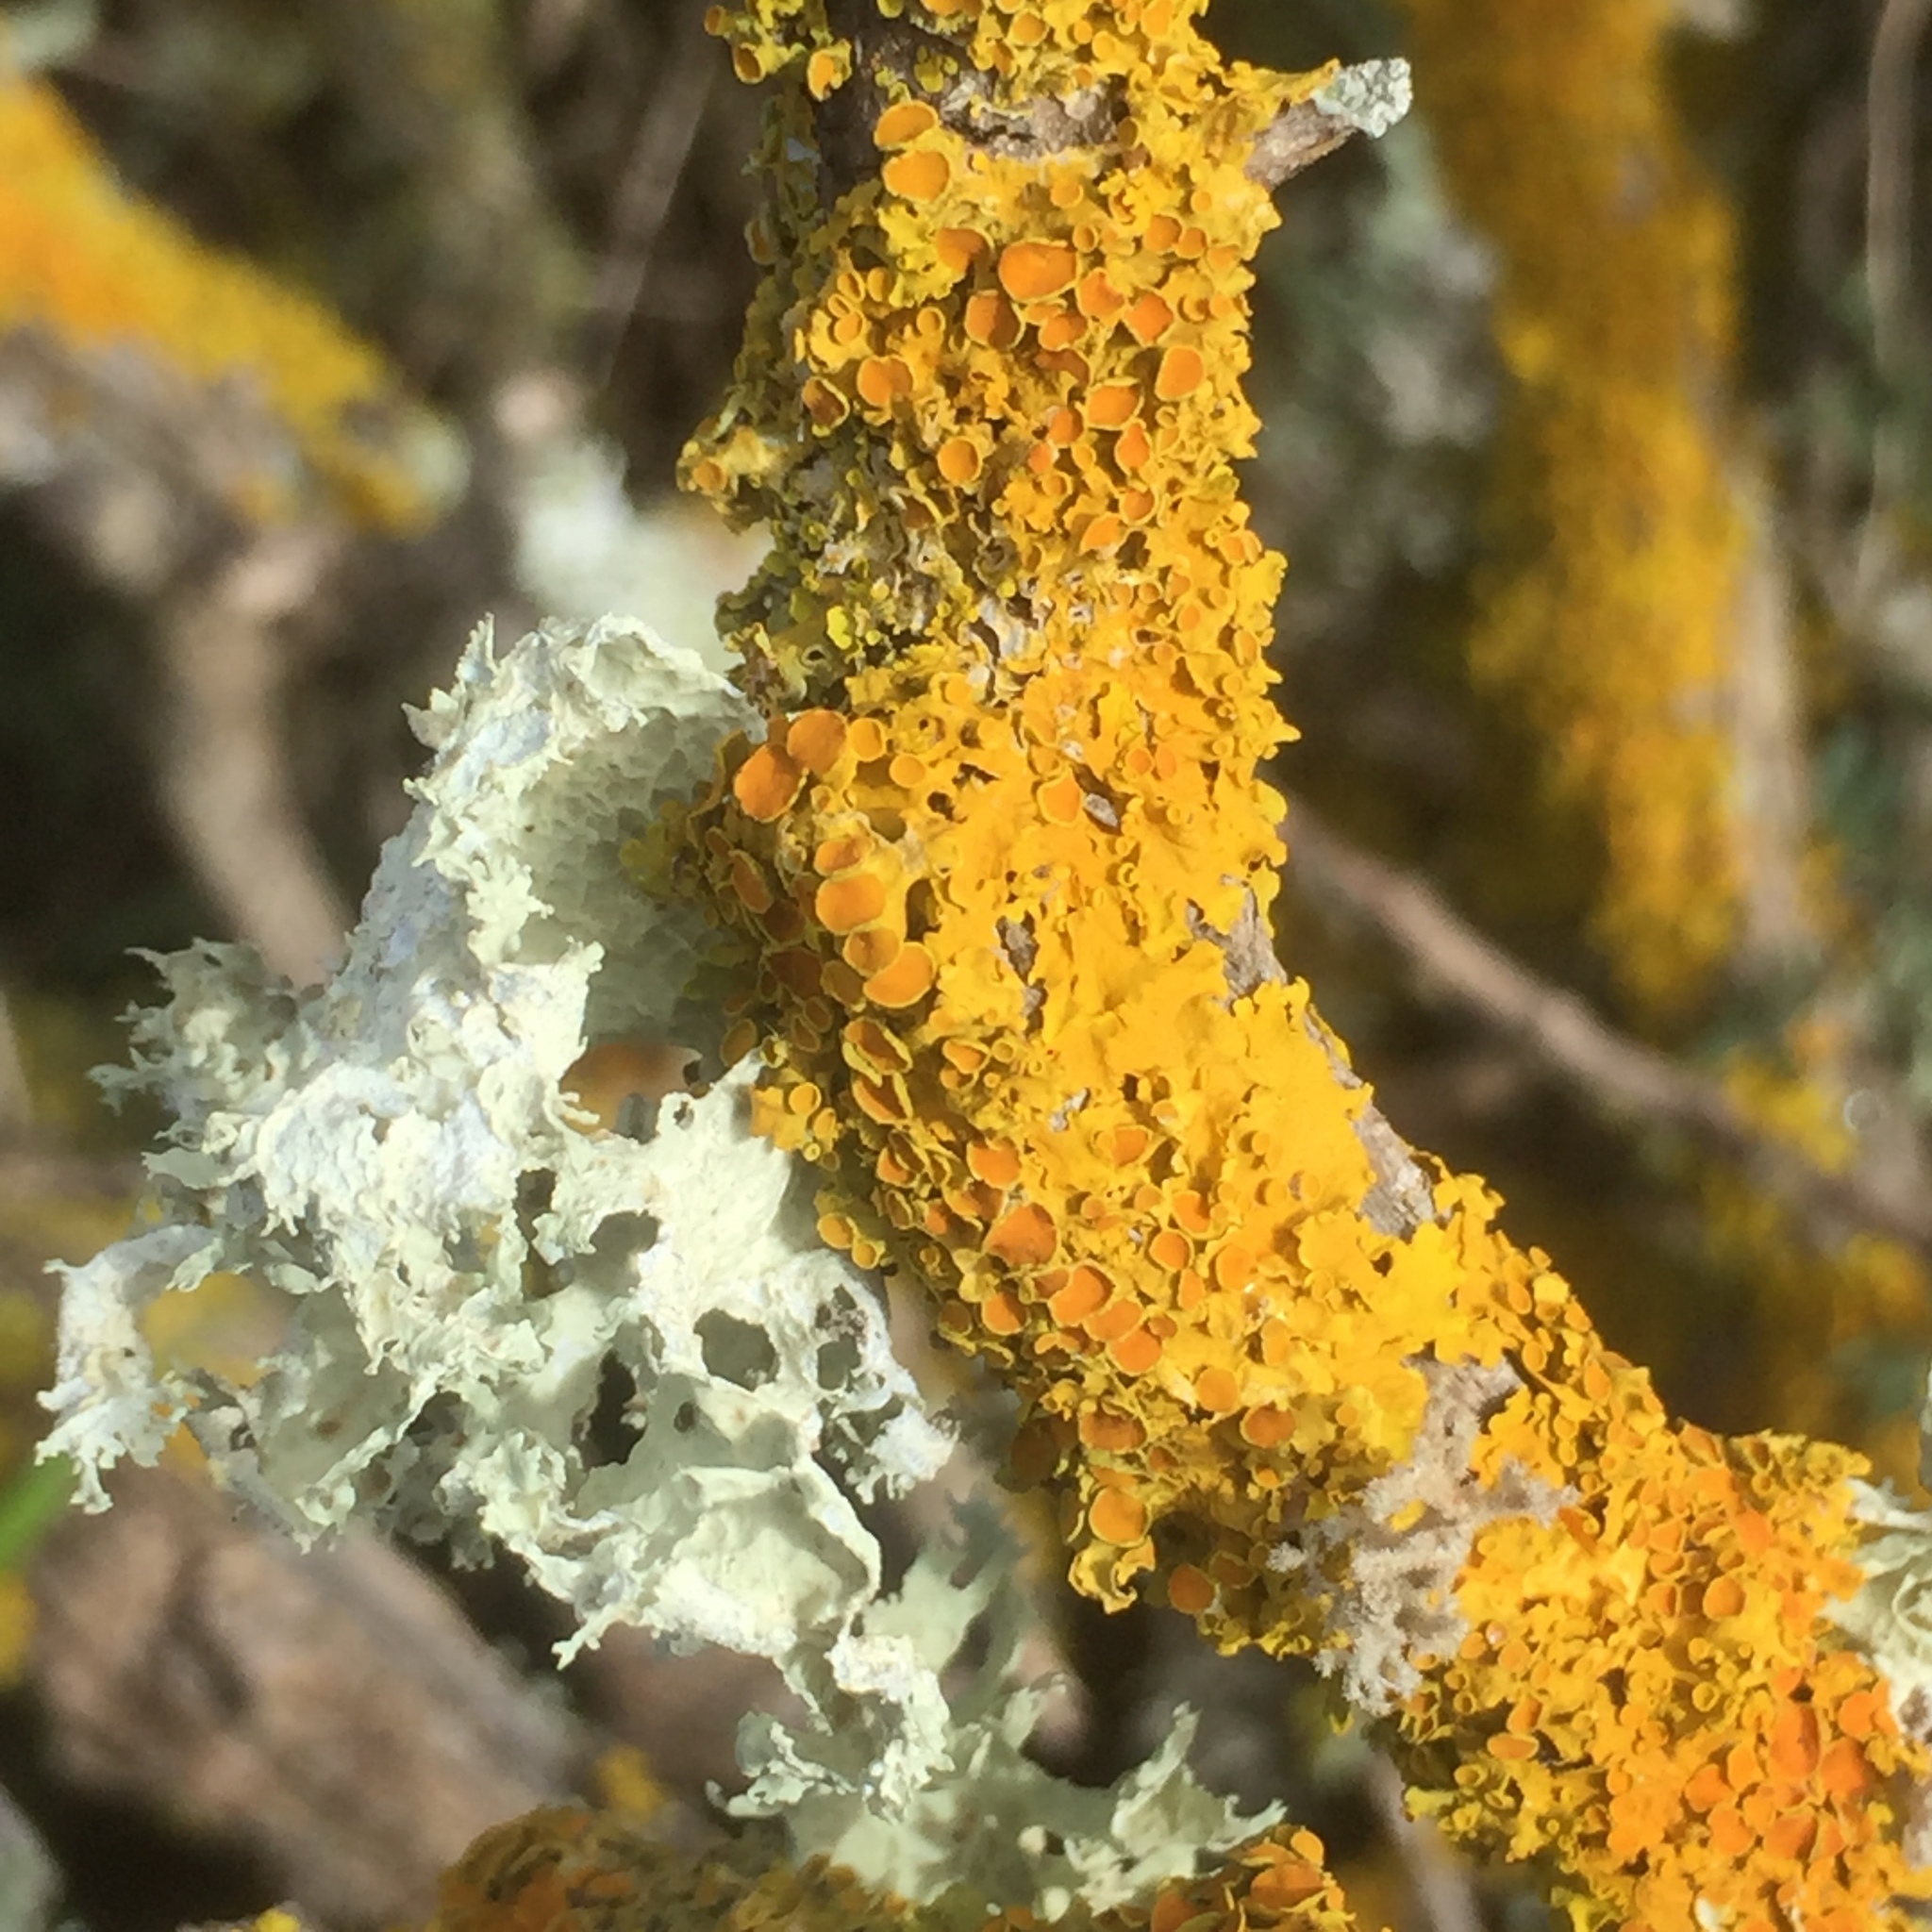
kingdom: Fungi
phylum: Ascomycota
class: Lecanoromycetes
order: Teloschistales
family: Teloschistaceae
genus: Xanthoria
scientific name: Xanthoria parietina
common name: Common orange lichen
